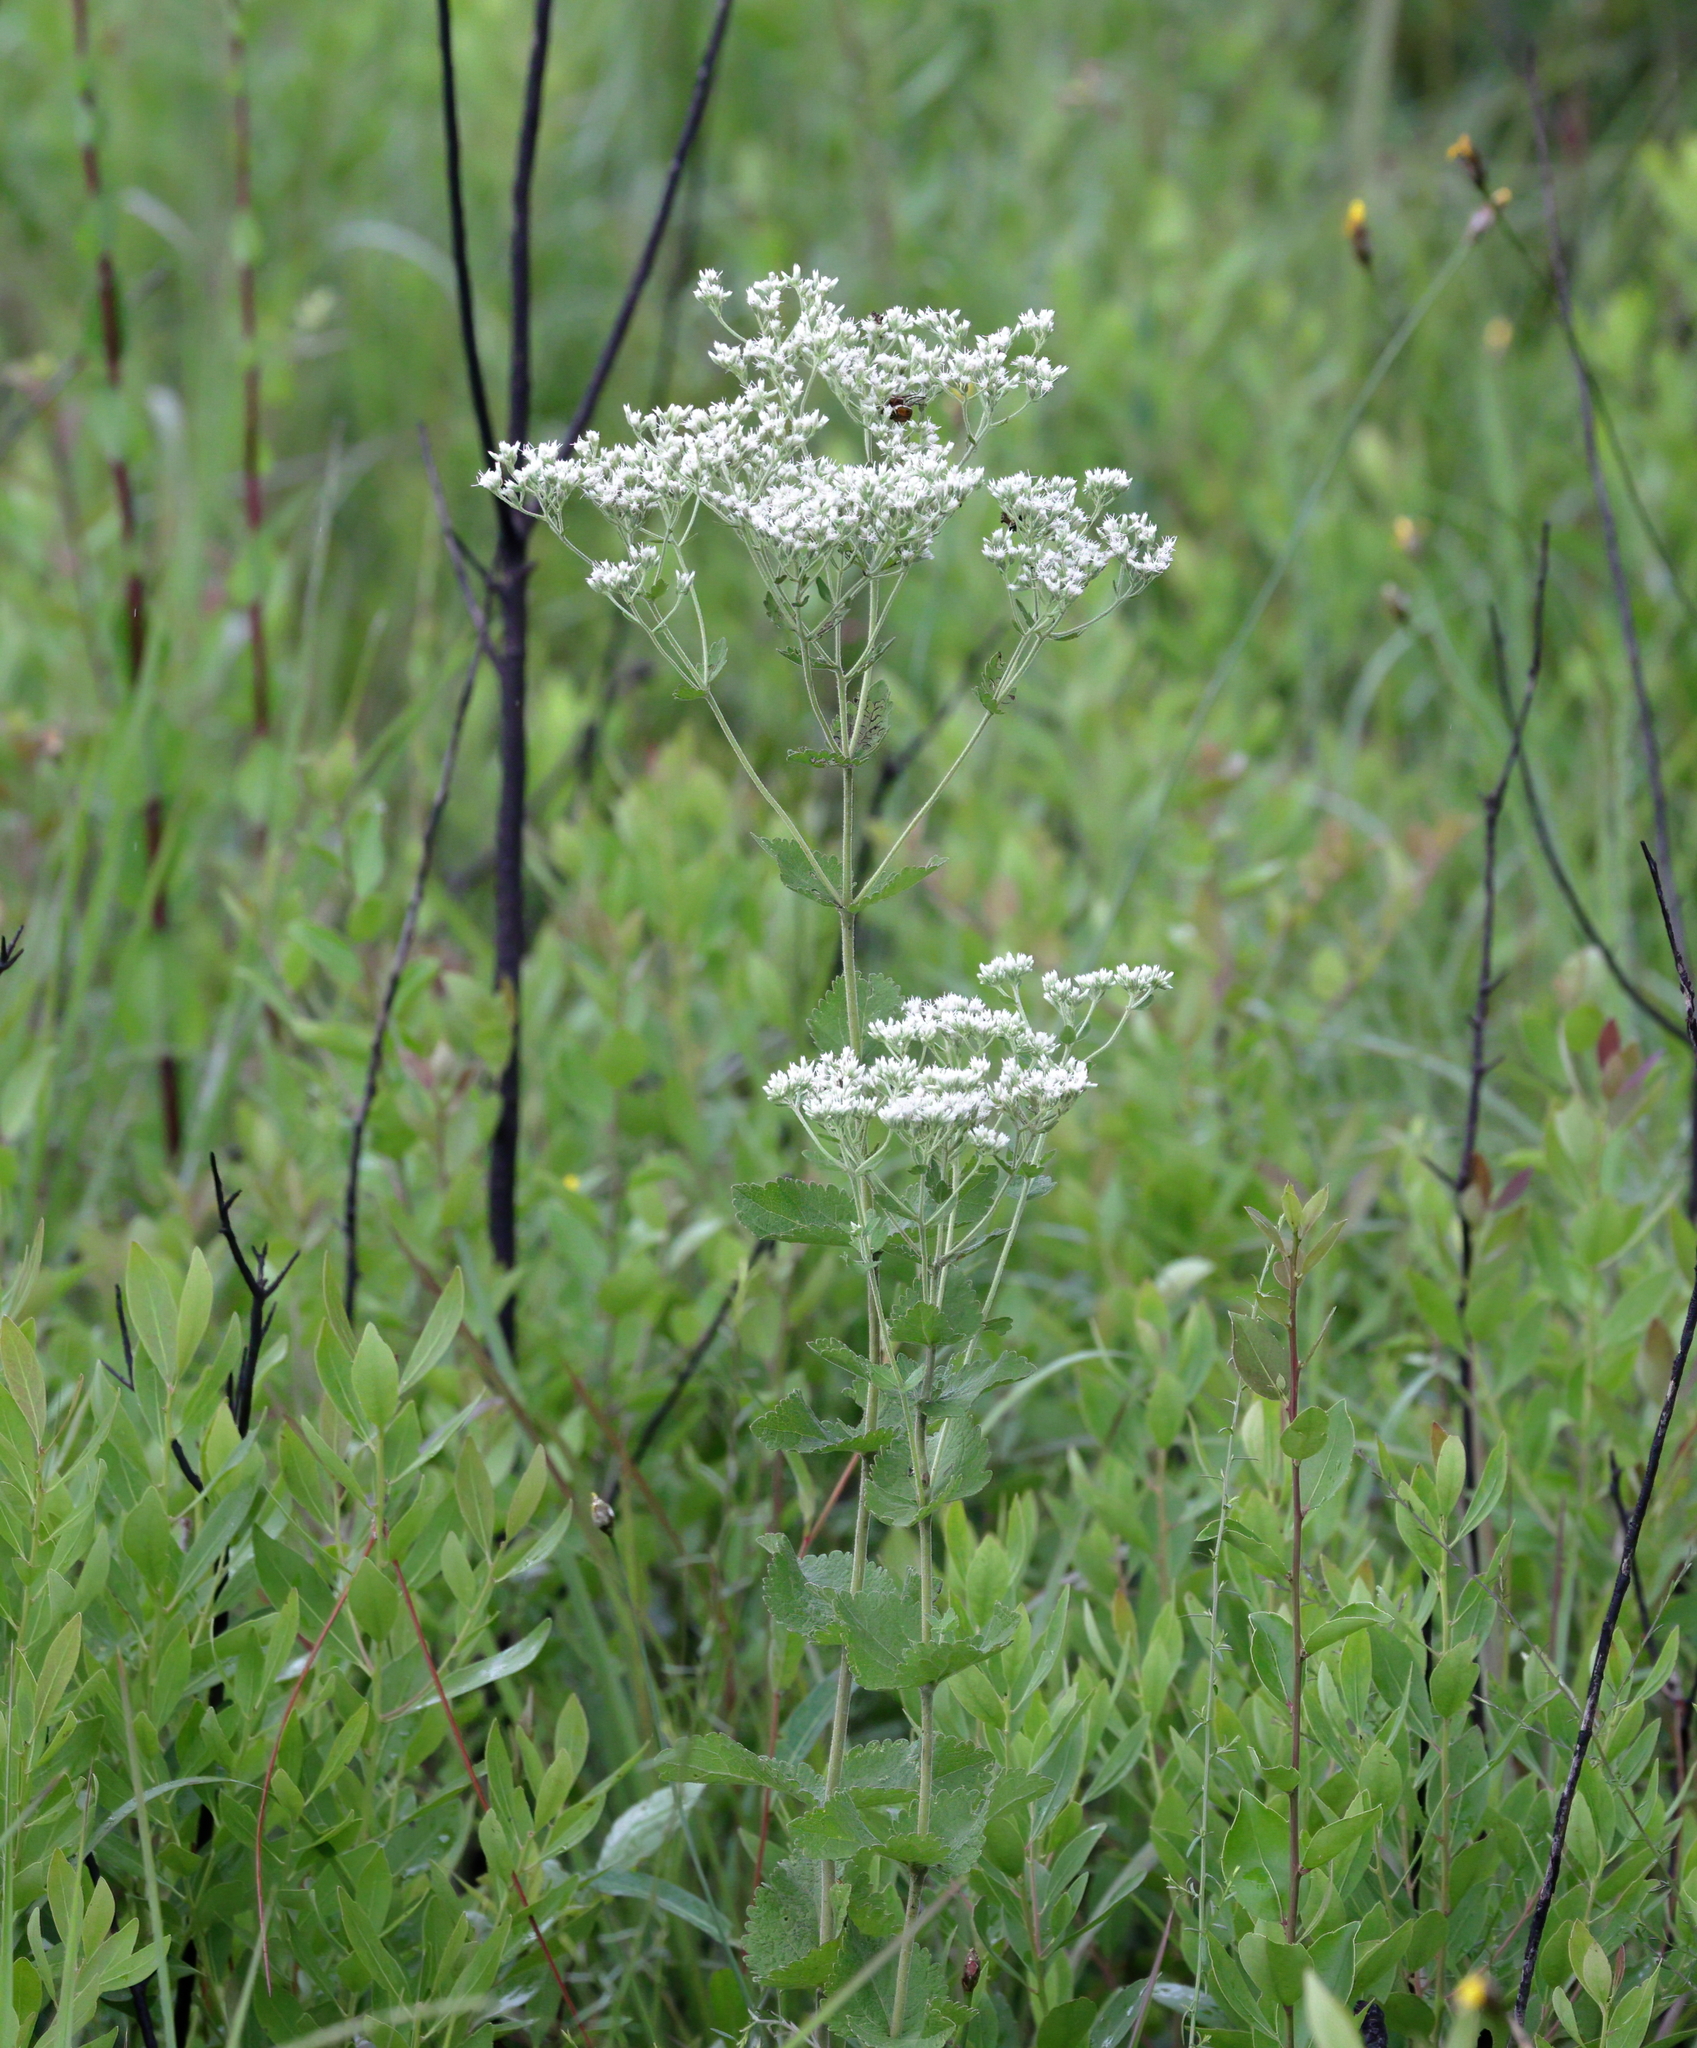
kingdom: Plantae
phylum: Tracheophyta
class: Magnoliopsida
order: Asterales
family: Asteraceae
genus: Eupatorium
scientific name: Eupatorium rotundifolium
